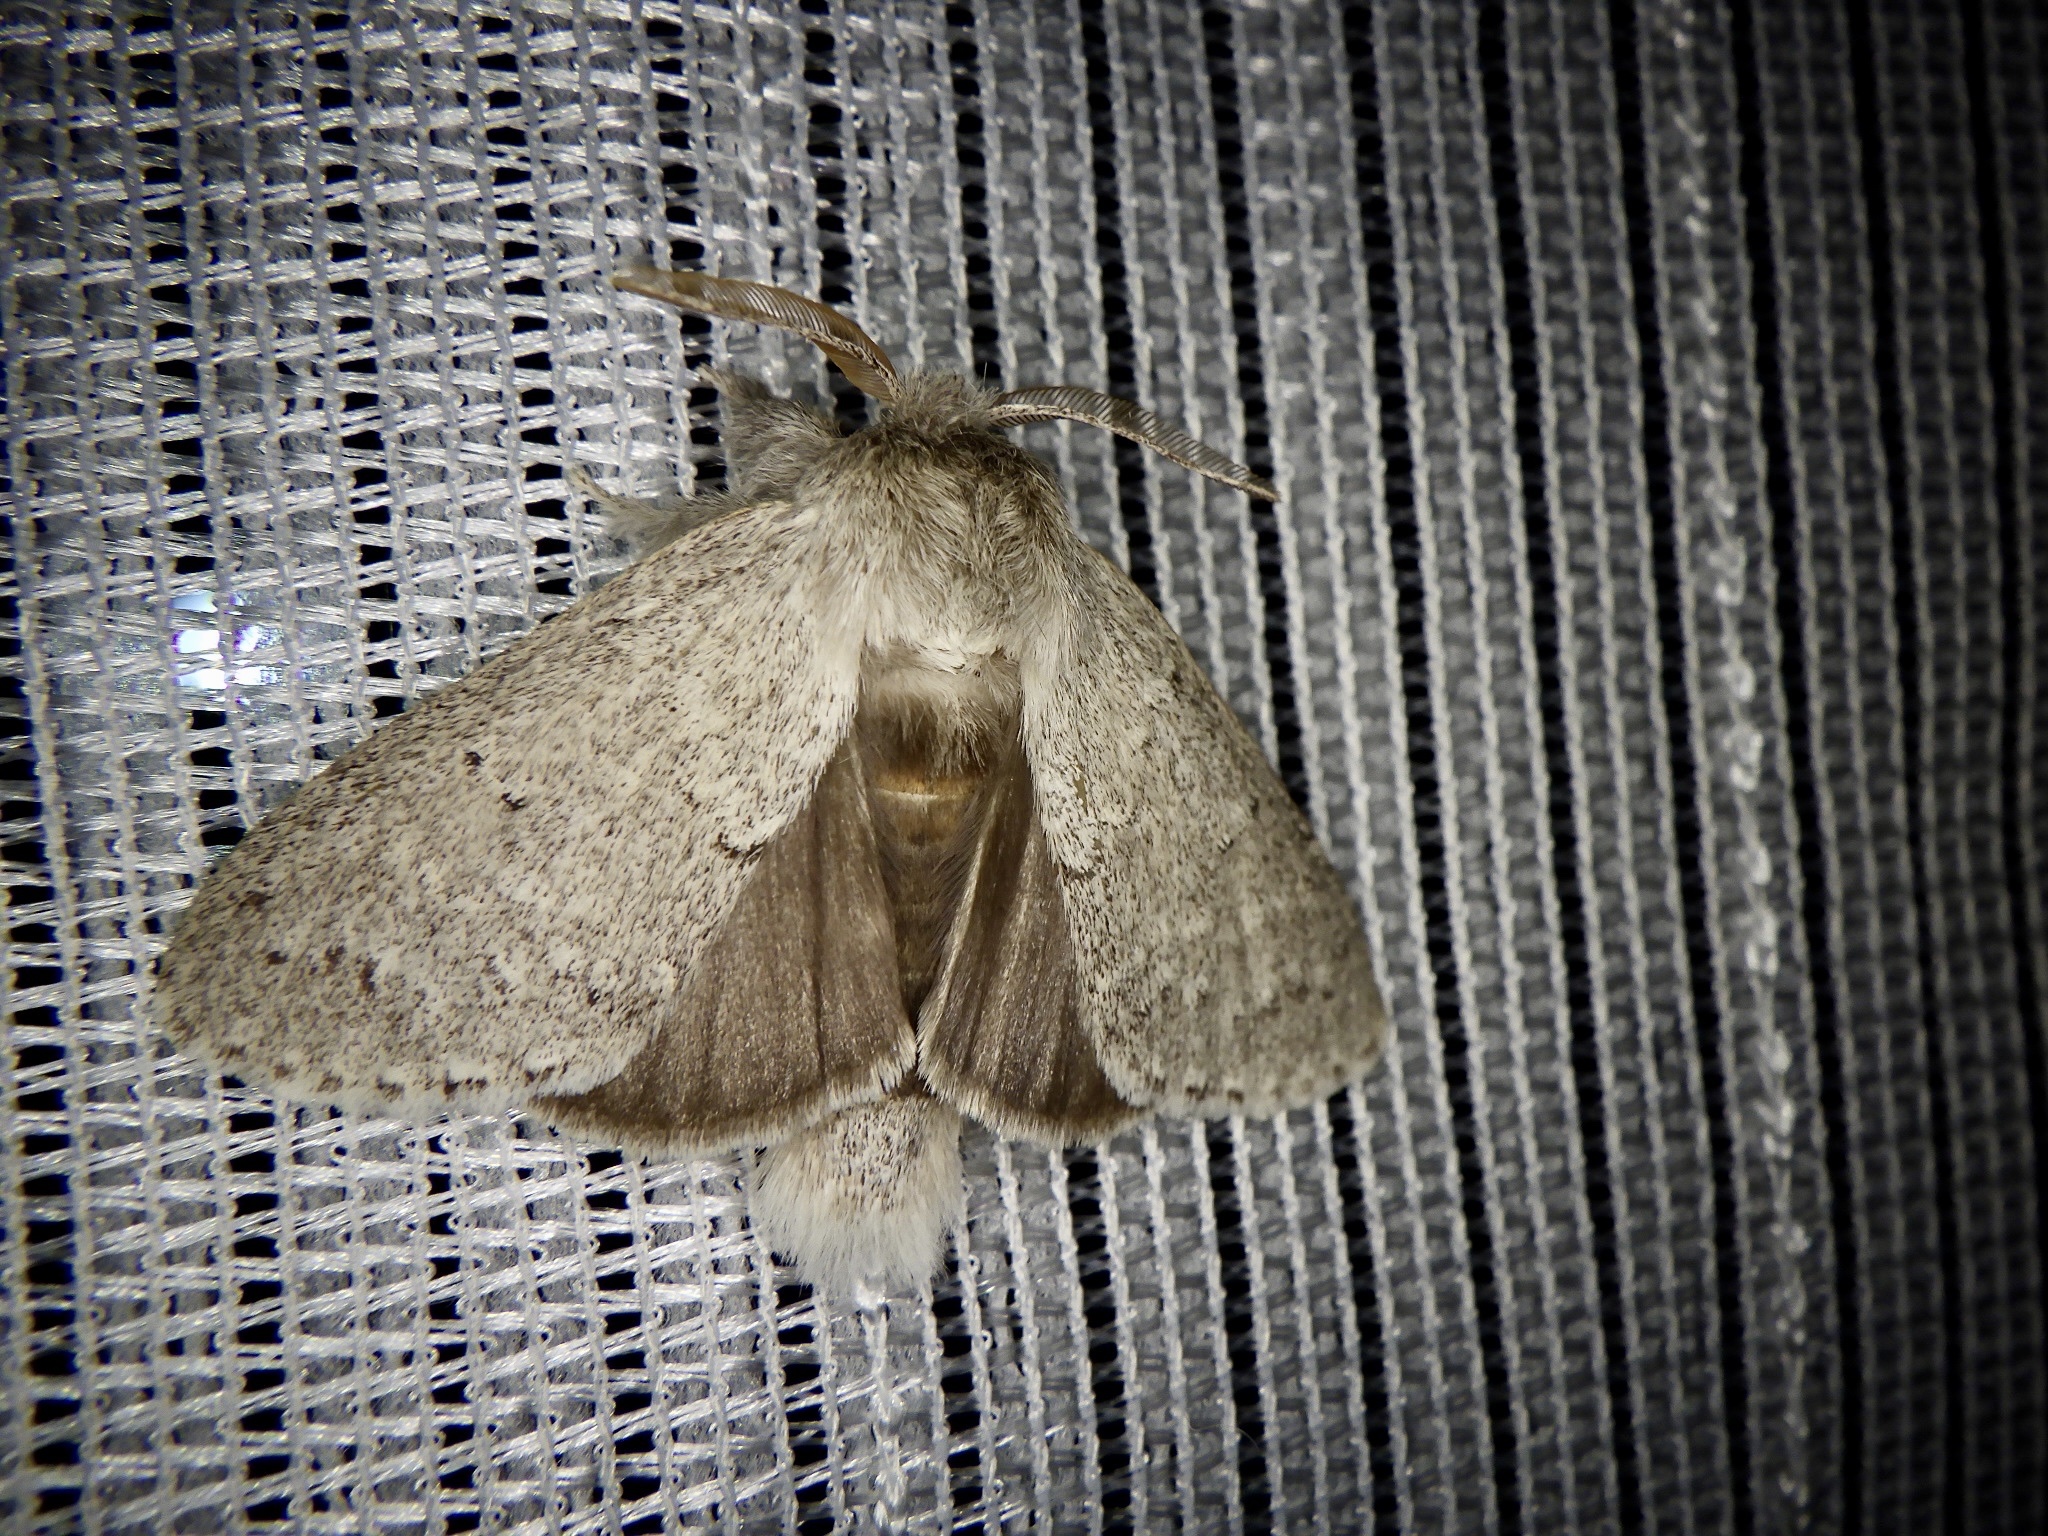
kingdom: Animalia
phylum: Arthropoda
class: Insecta
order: Lepidoptera
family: Notodontidae
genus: Cnethodonta
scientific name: Cnethodonta grisescens
